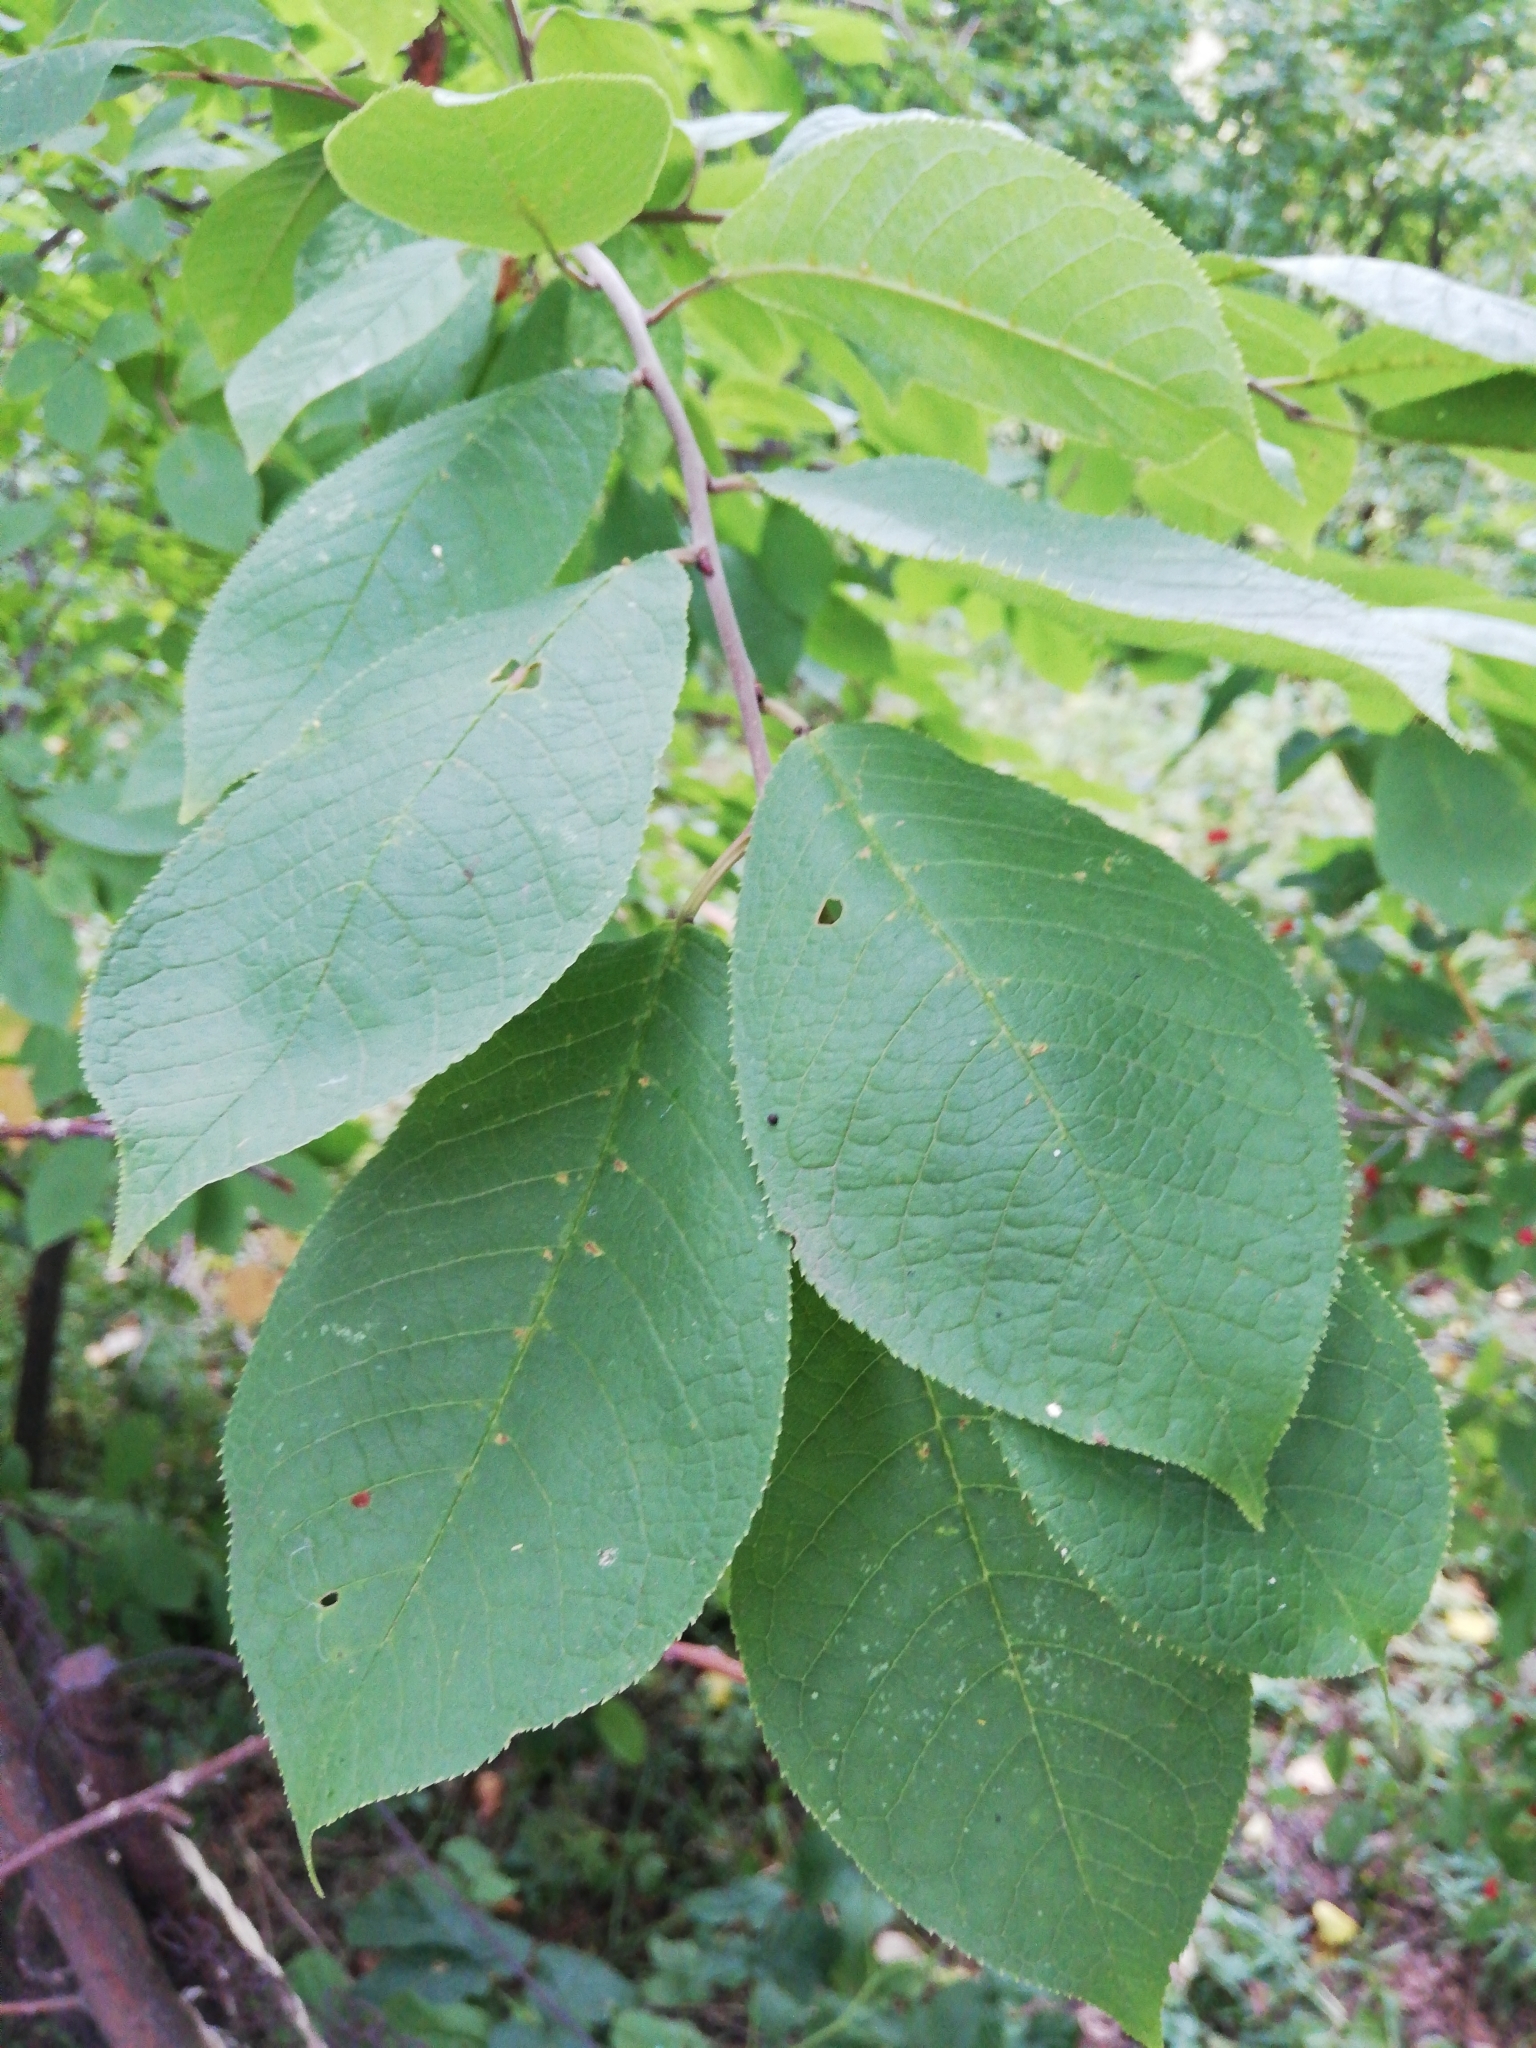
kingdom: Plantae
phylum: Tracheophyta
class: Magnoliopsida
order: Rosales
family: Rosaceae
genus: Prunus
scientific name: Prunus padus
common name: Bird cherry
